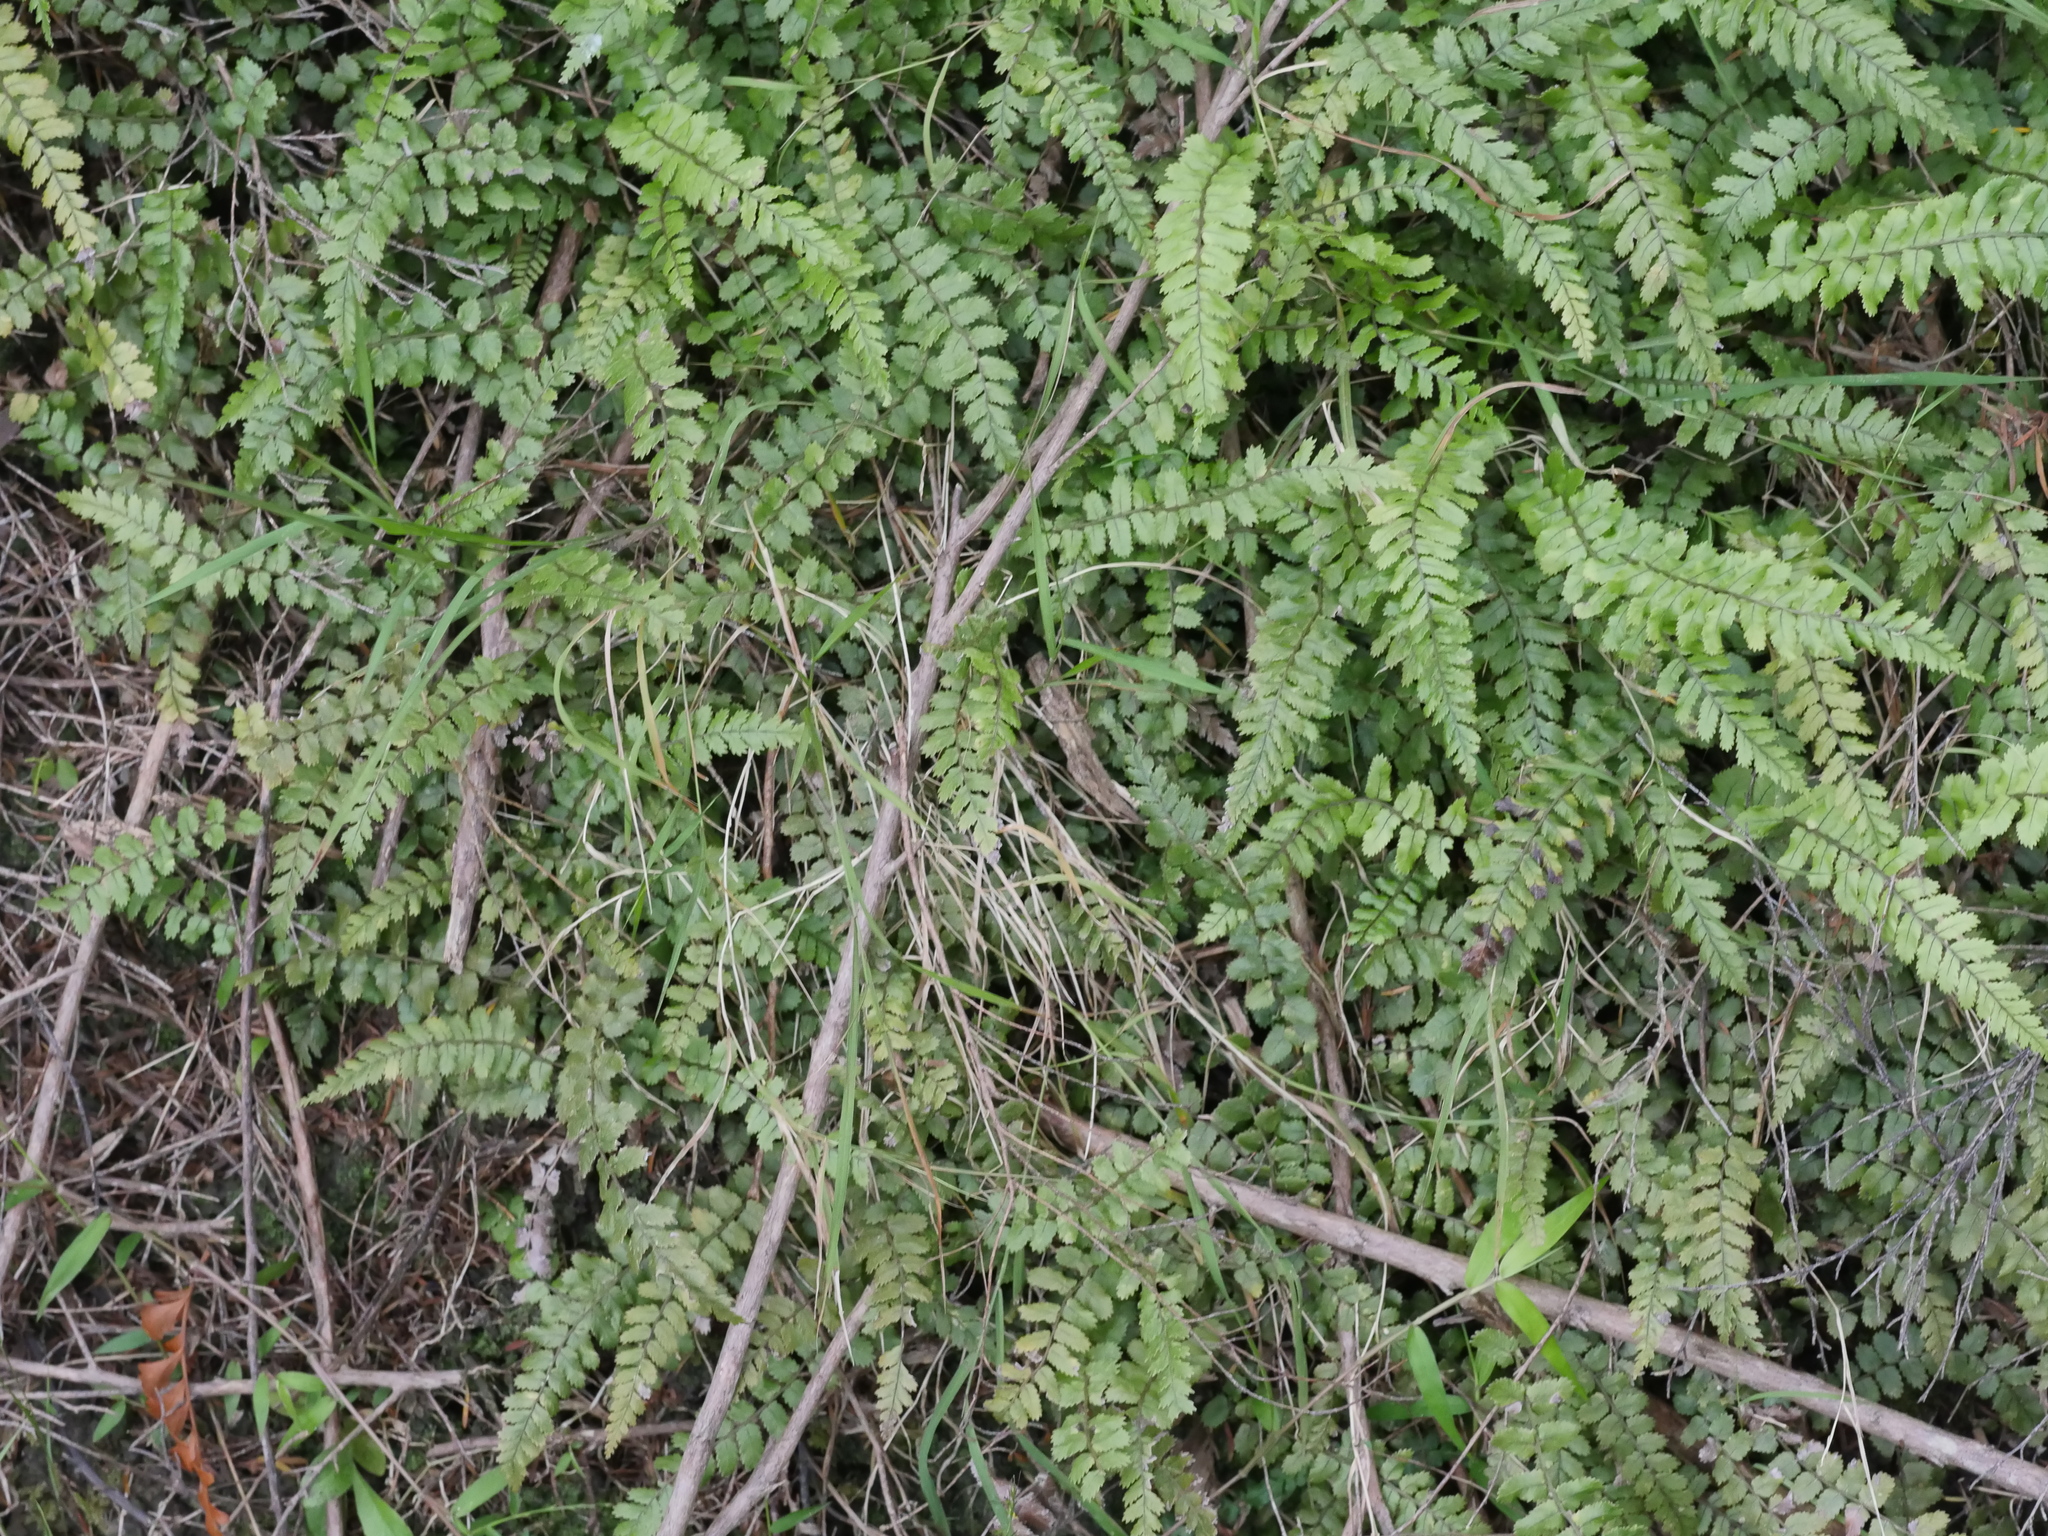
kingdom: Plantae
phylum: Tracheophyta
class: Polypodiopsida
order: Polypodiales
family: Blechnaceae
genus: Icarus
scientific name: Icarus filiformis
